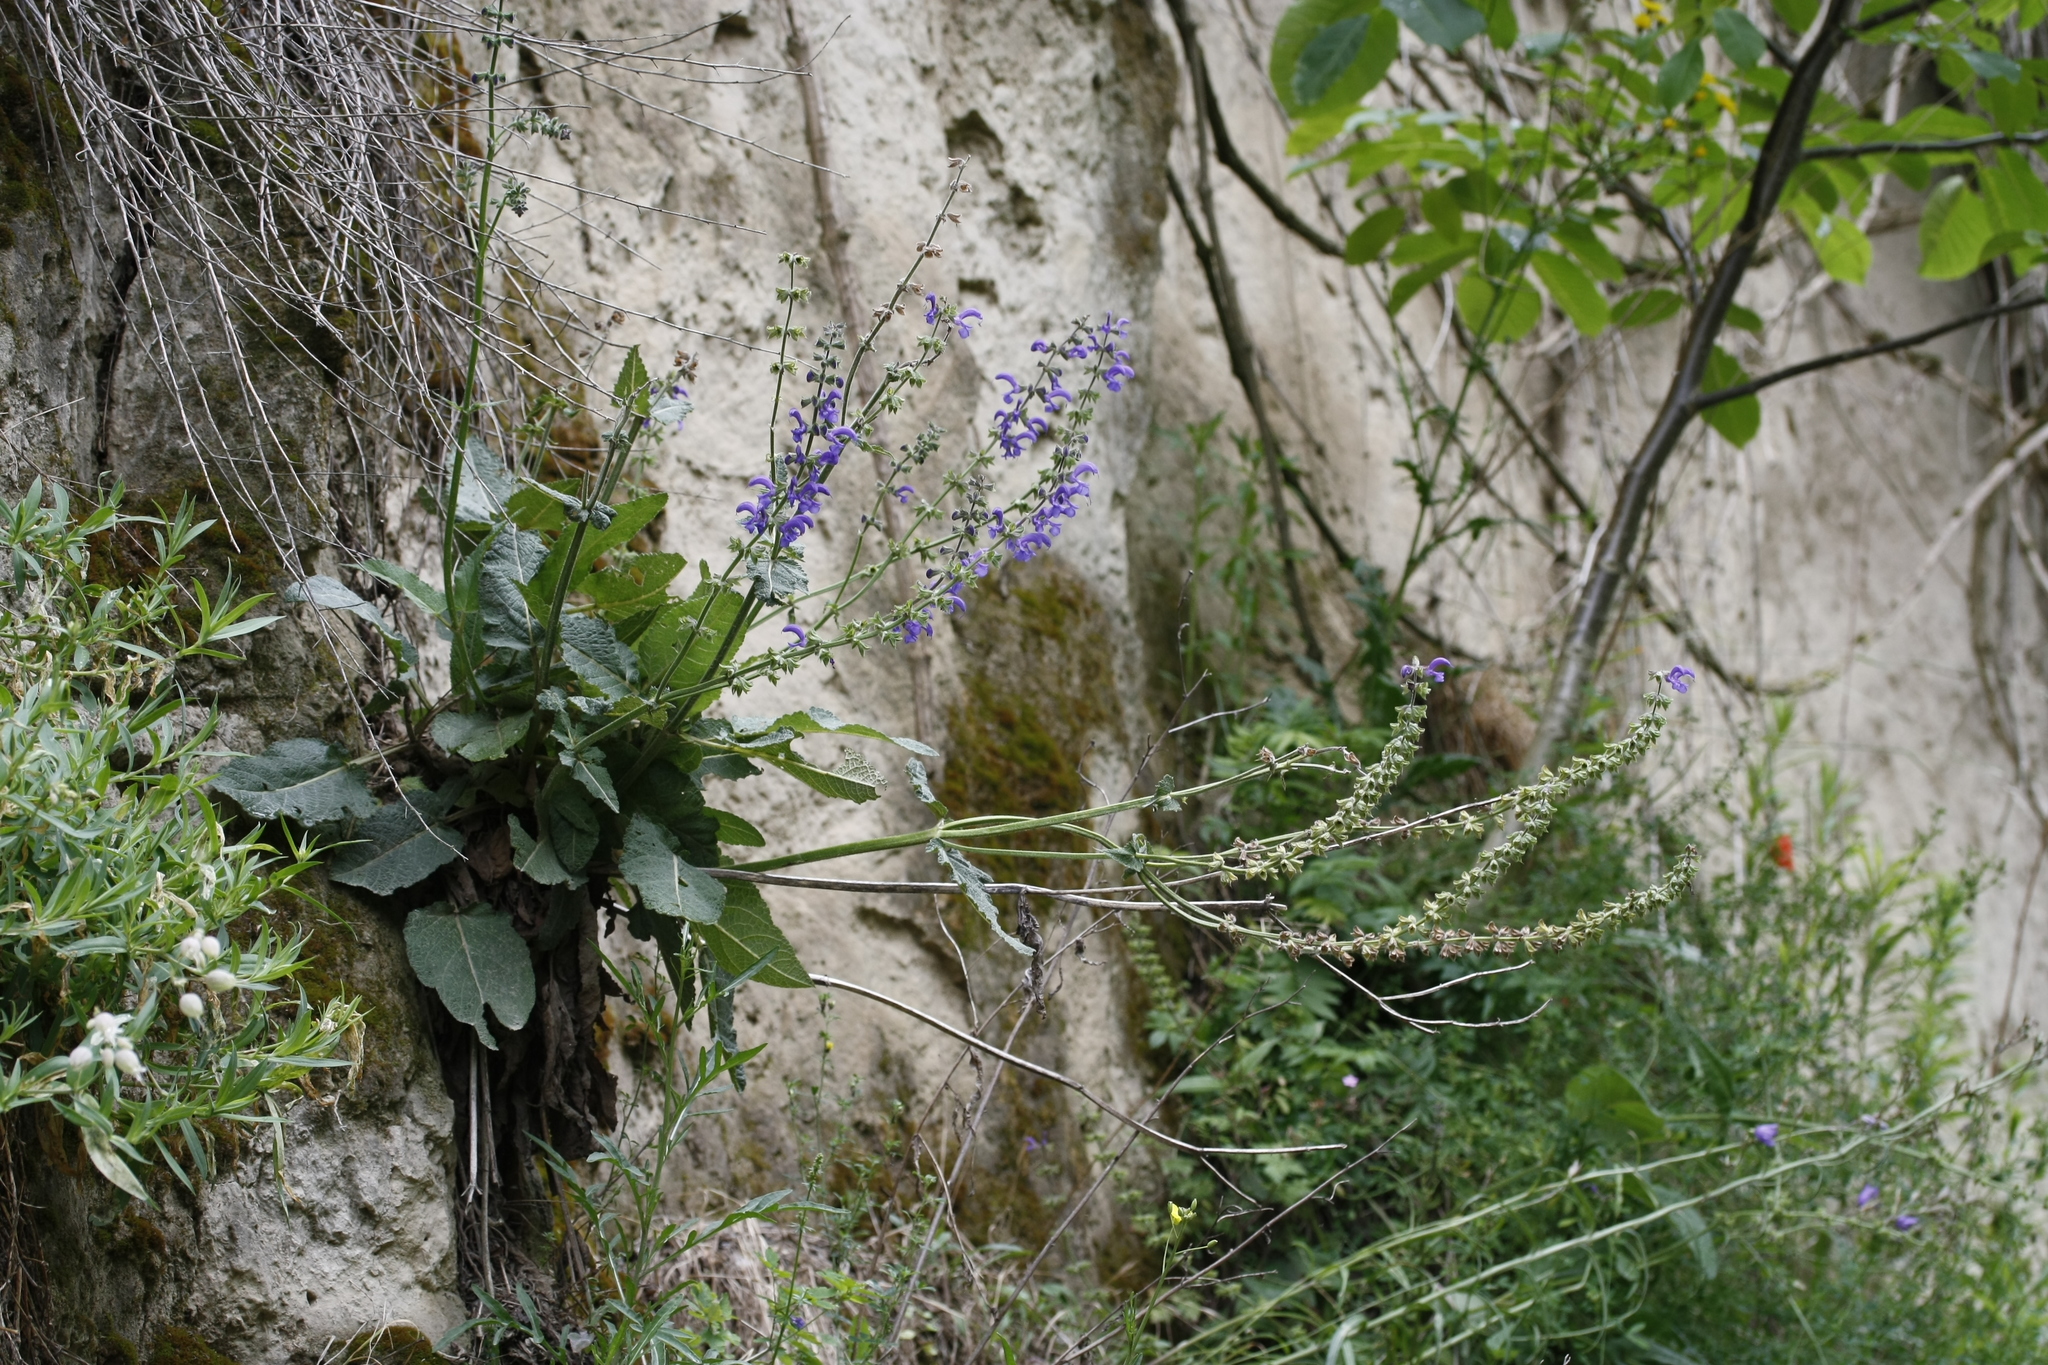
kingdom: Plantae
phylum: Tracheophyta
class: Magnoliopsida
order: Lamiales
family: Lamiaceae
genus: Salvia
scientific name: Salvia pratensis
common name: Meadow sage
